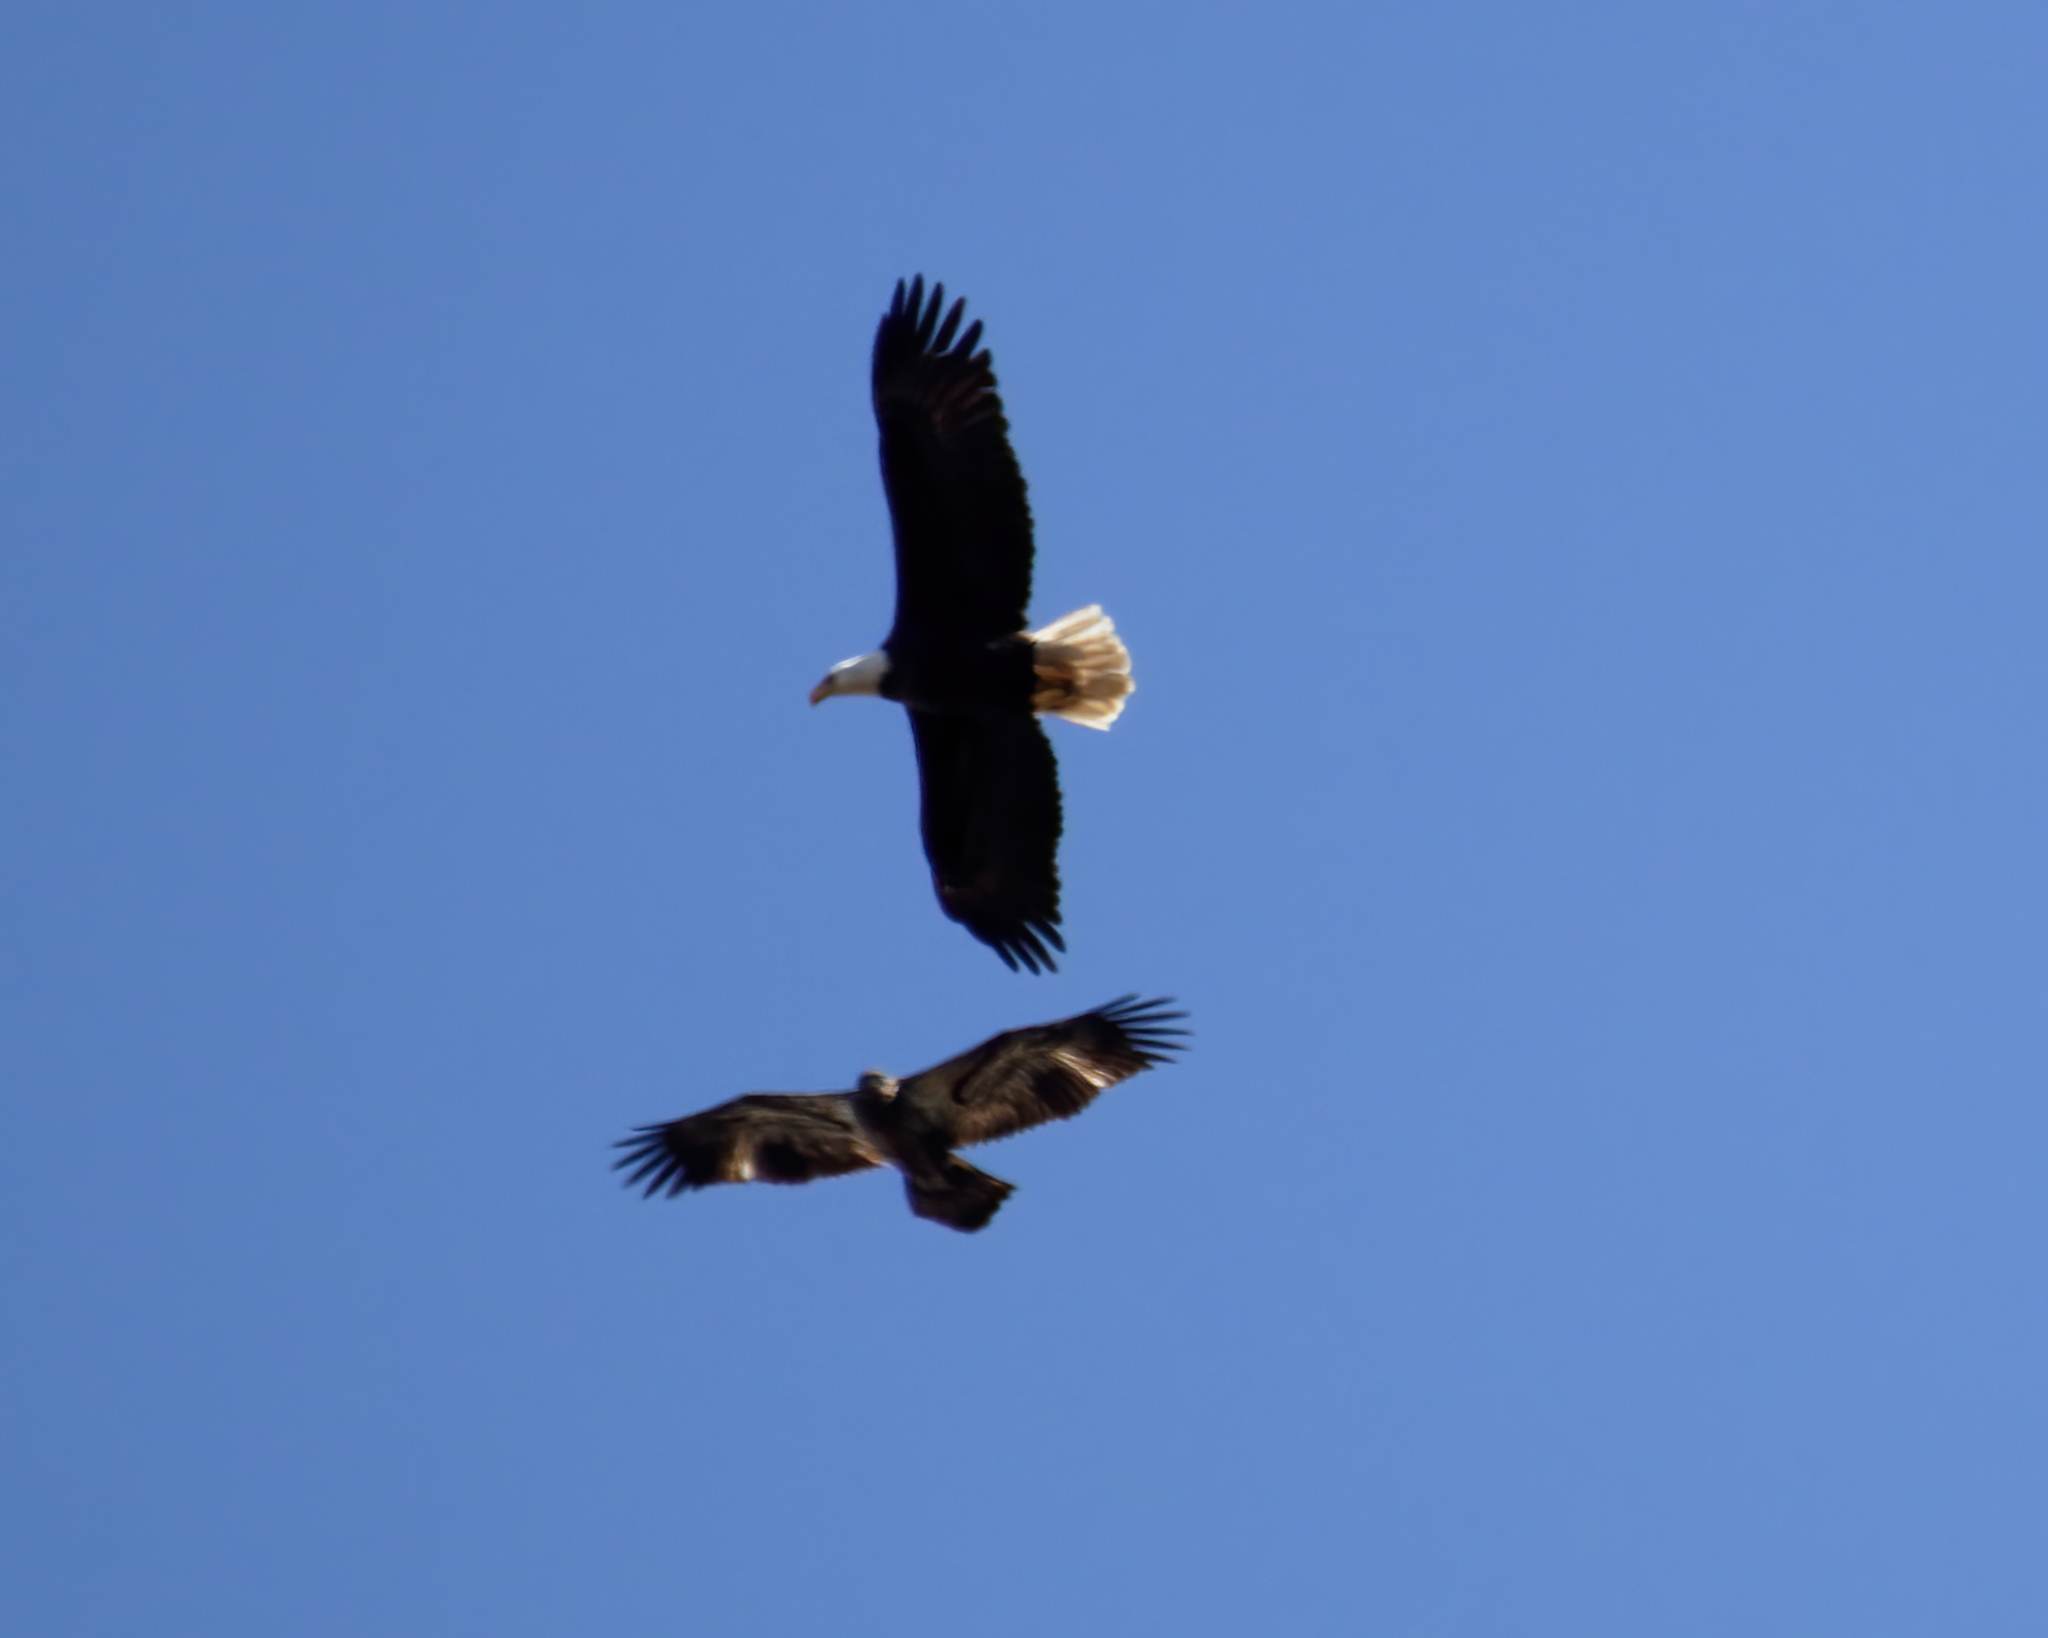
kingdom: Animalia
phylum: Chordata
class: Aves
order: Accipitriformes
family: Accipitridae
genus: Haliaeetus
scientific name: Haliaeetus leucocephalus
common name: Bald eagle
